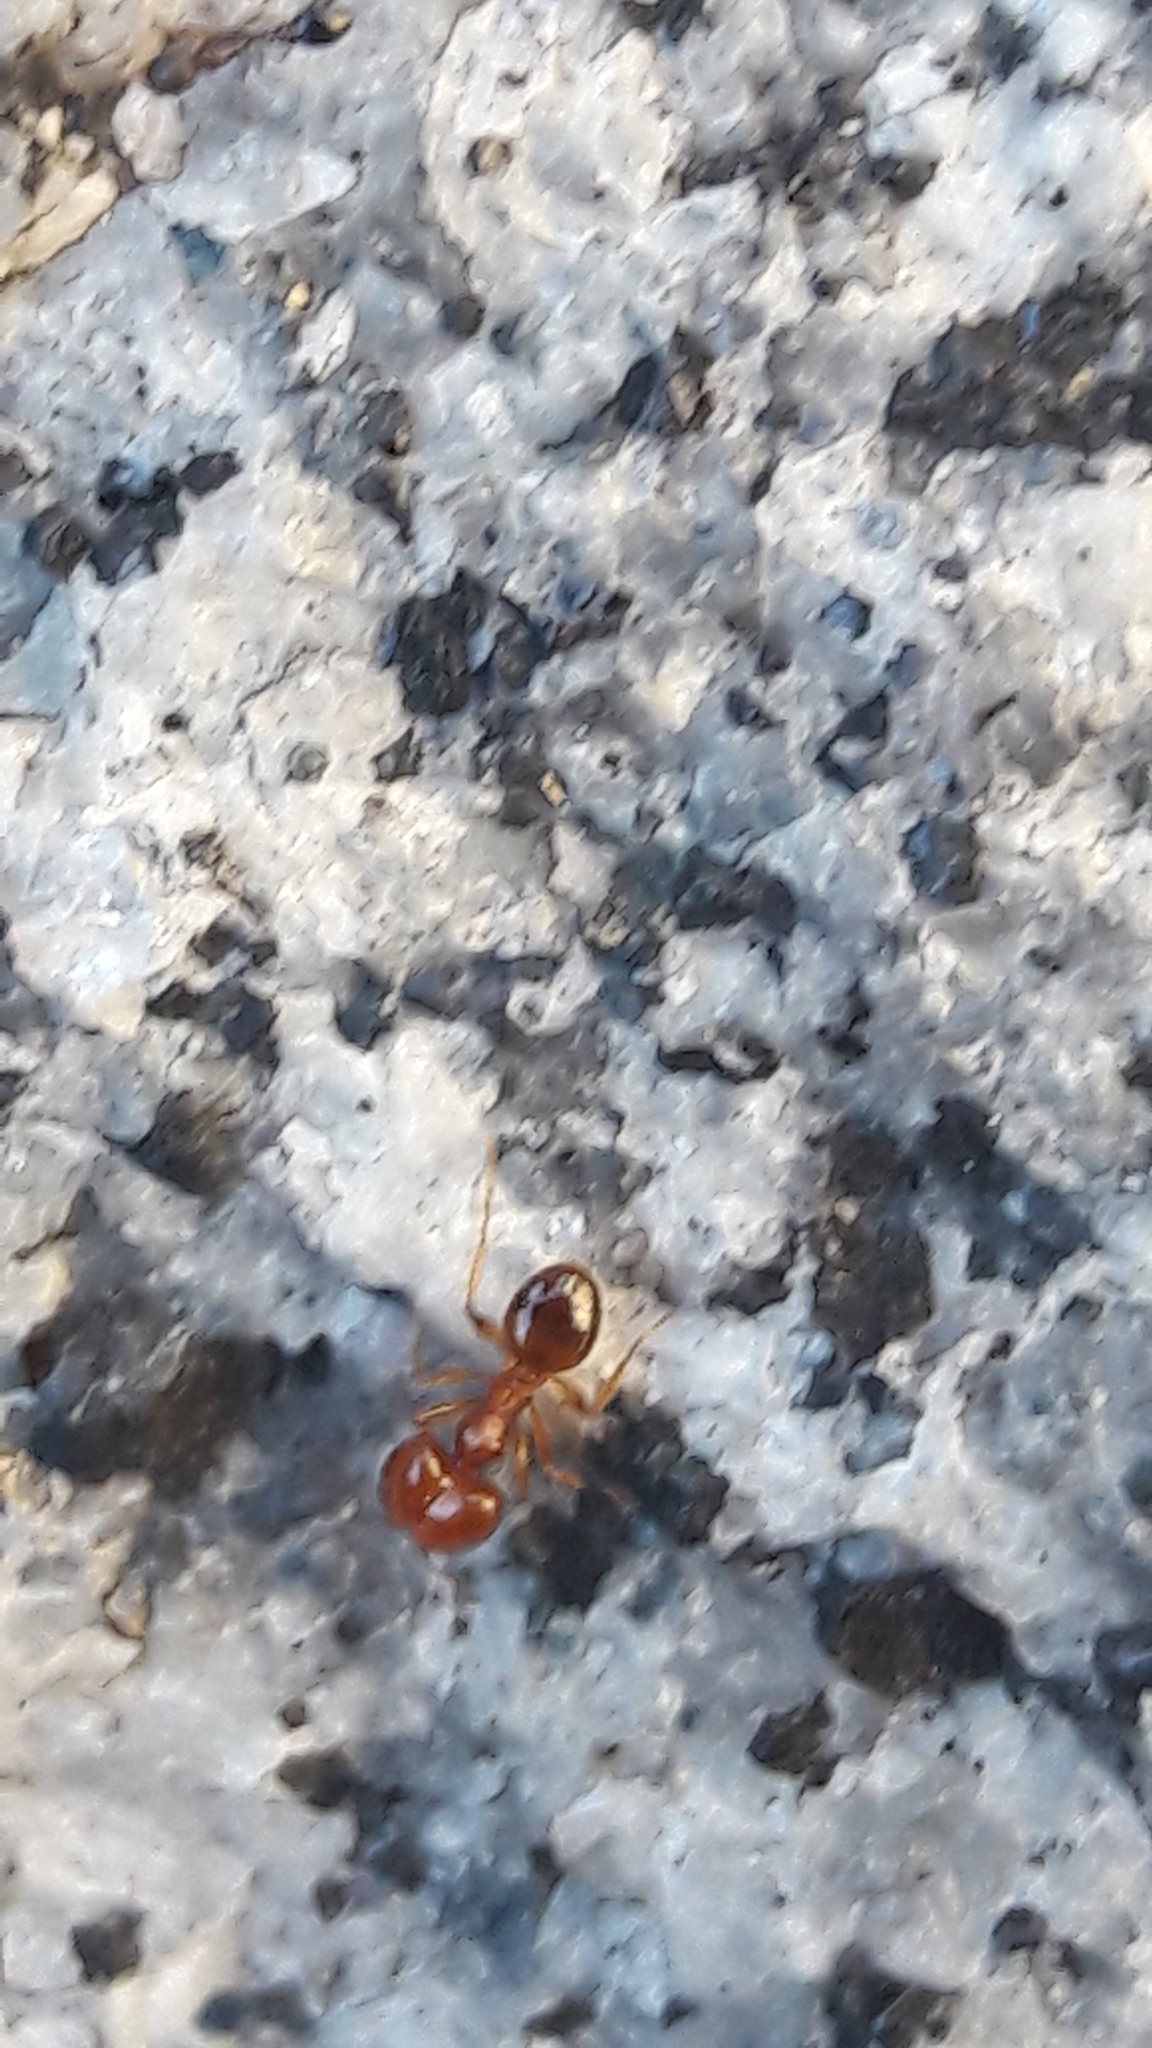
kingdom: Animalia
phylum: Arthropoda
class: Insecta
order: Hymenoptera
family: Formicidae
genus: Pheidole
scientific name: Pheidole pallidula
